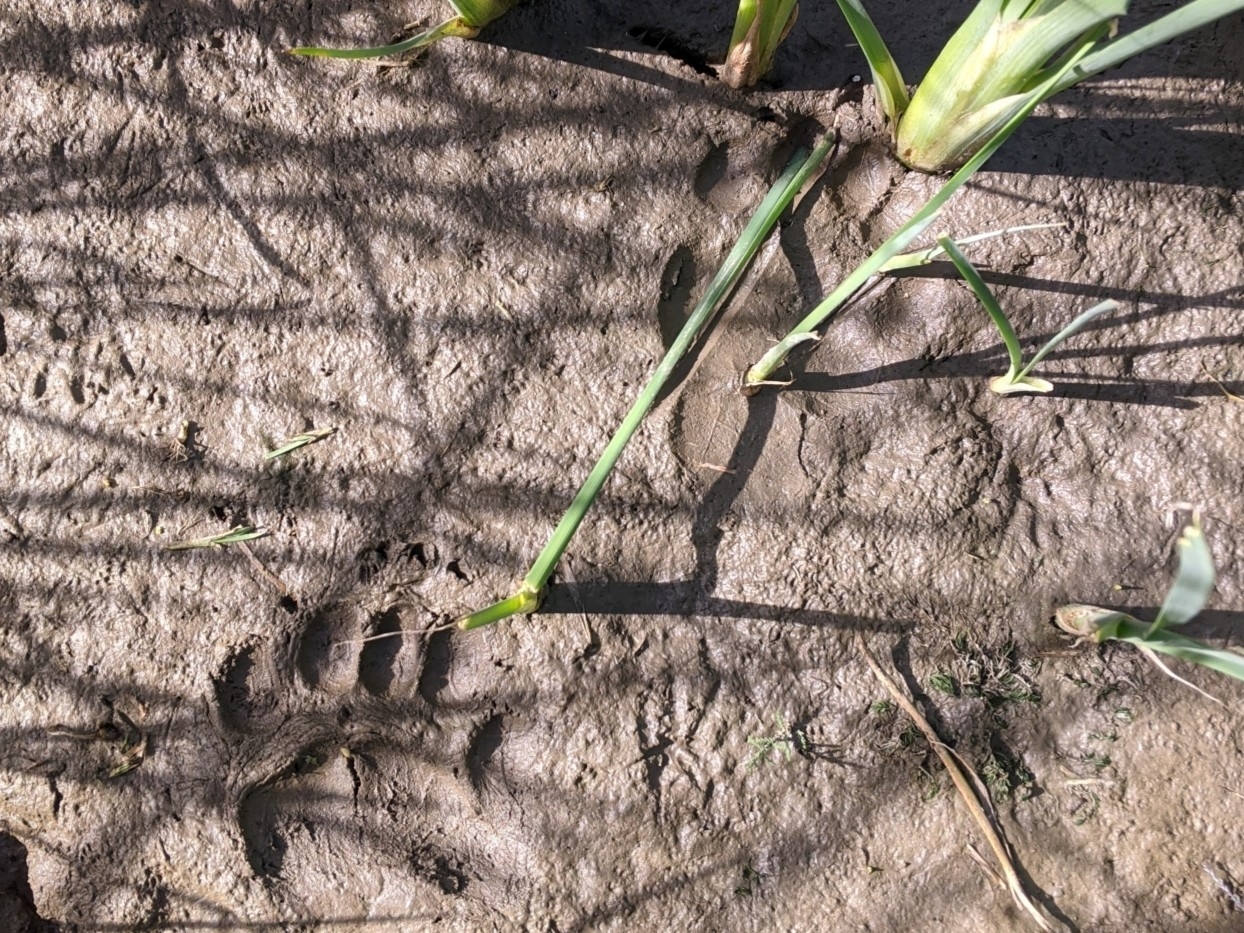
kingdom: Animalia
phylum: Chordata
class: Mammalia
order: Carnivora
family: Ursidae
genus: Ursus
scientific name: Ursus americanus
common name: American black bear
